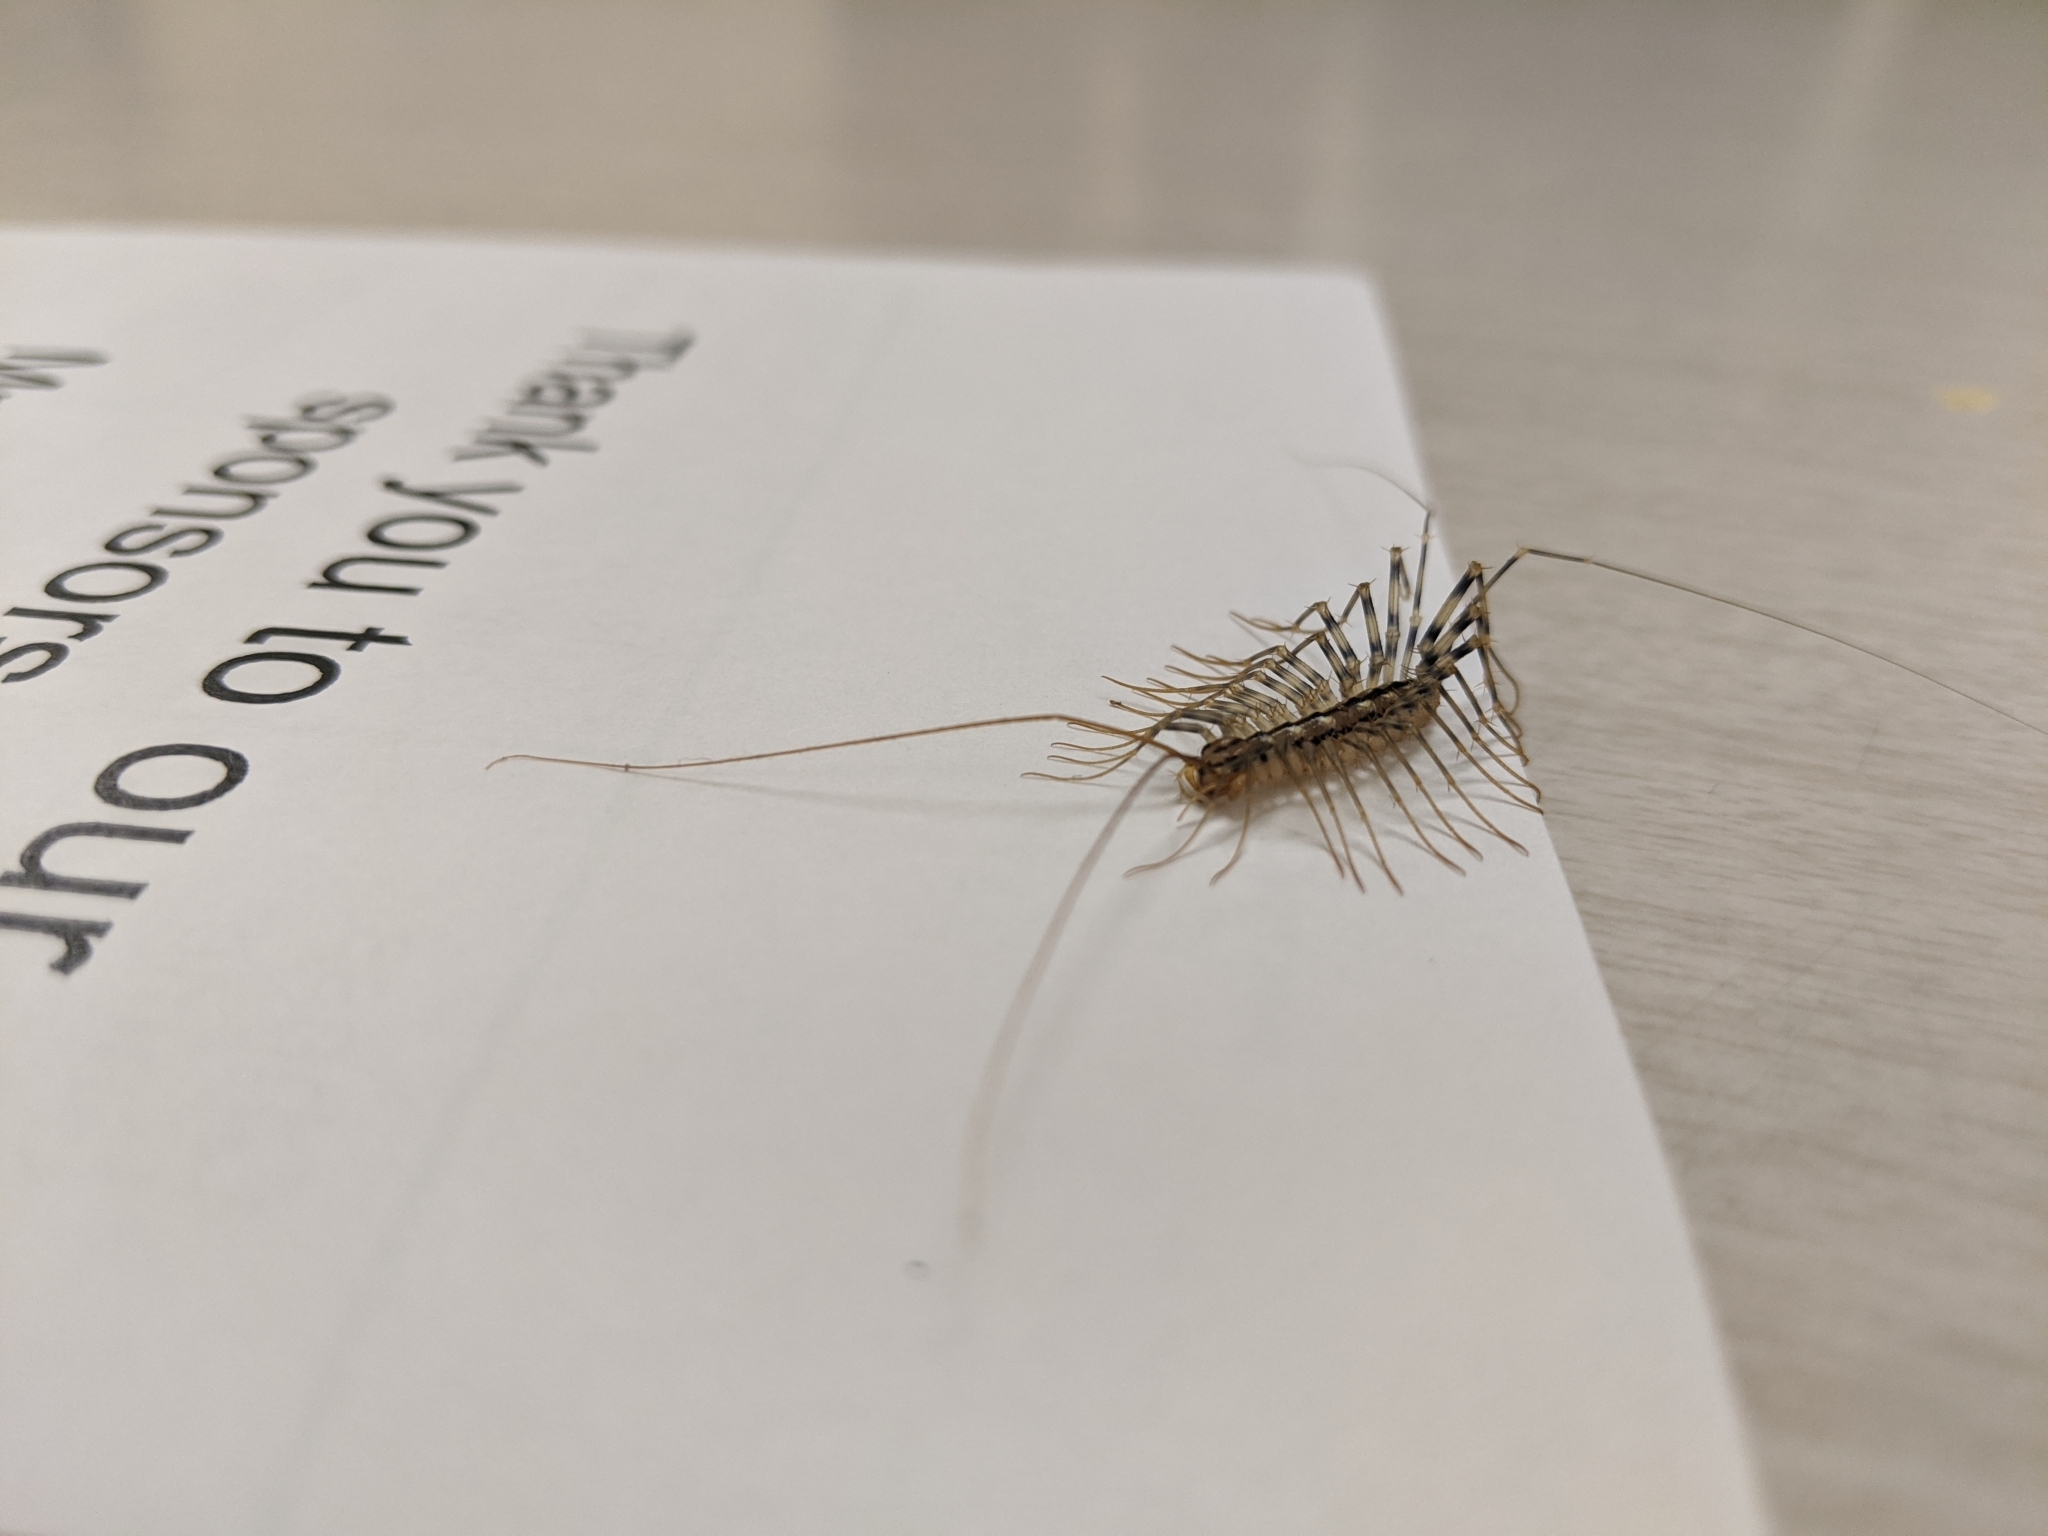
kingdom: Animalia
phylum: Arthropoda
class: Chilopoda
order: Scutigeromorpha
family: Scutigeridae
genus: Scutigera
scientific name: Scutigera coleoptrata
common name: House centipede
